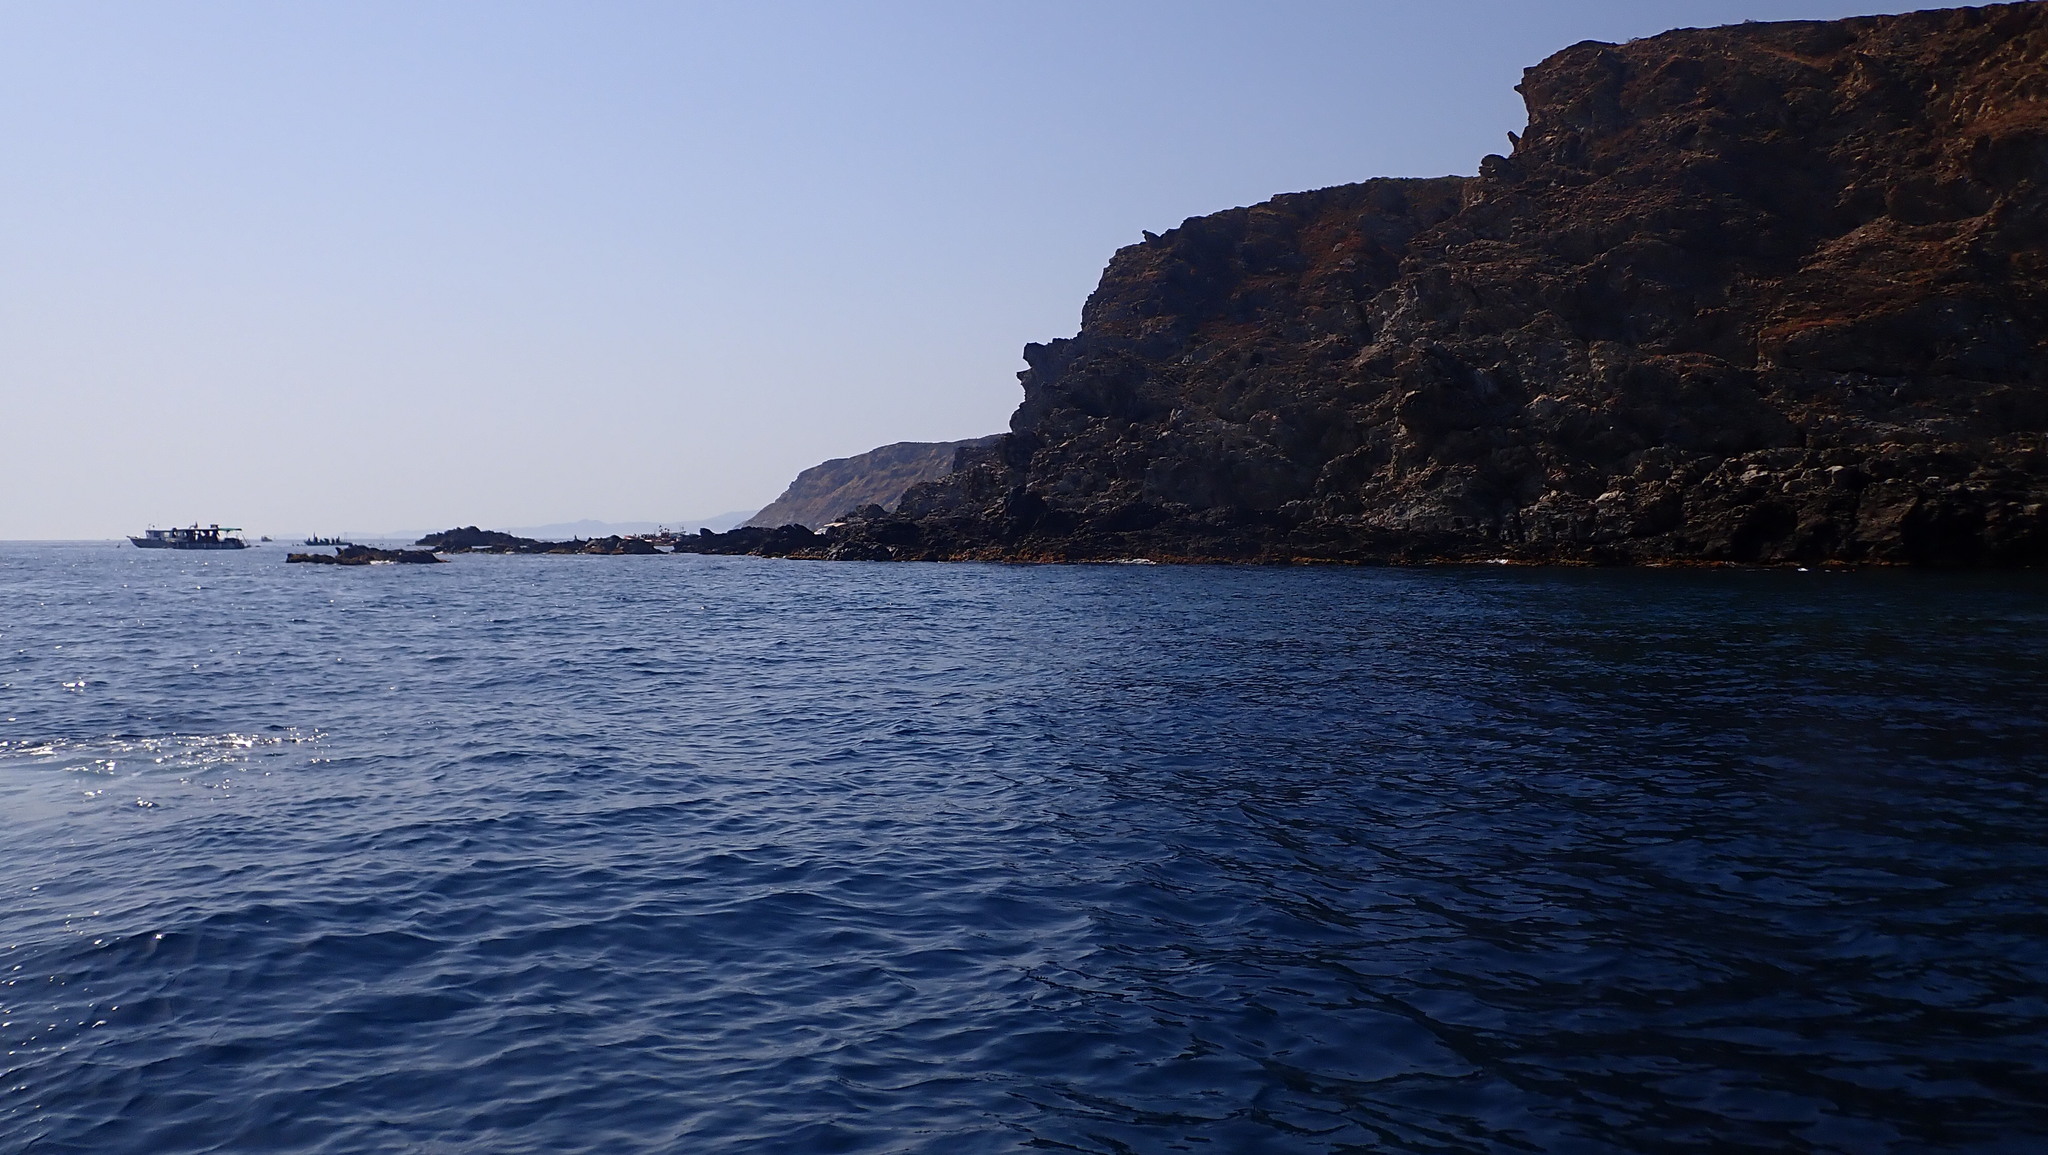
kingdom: Animalia
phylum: Chordata
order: Perciformes
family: Sparidae
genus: Oblada
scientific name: Oblada melanura
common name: Saddled seabream
